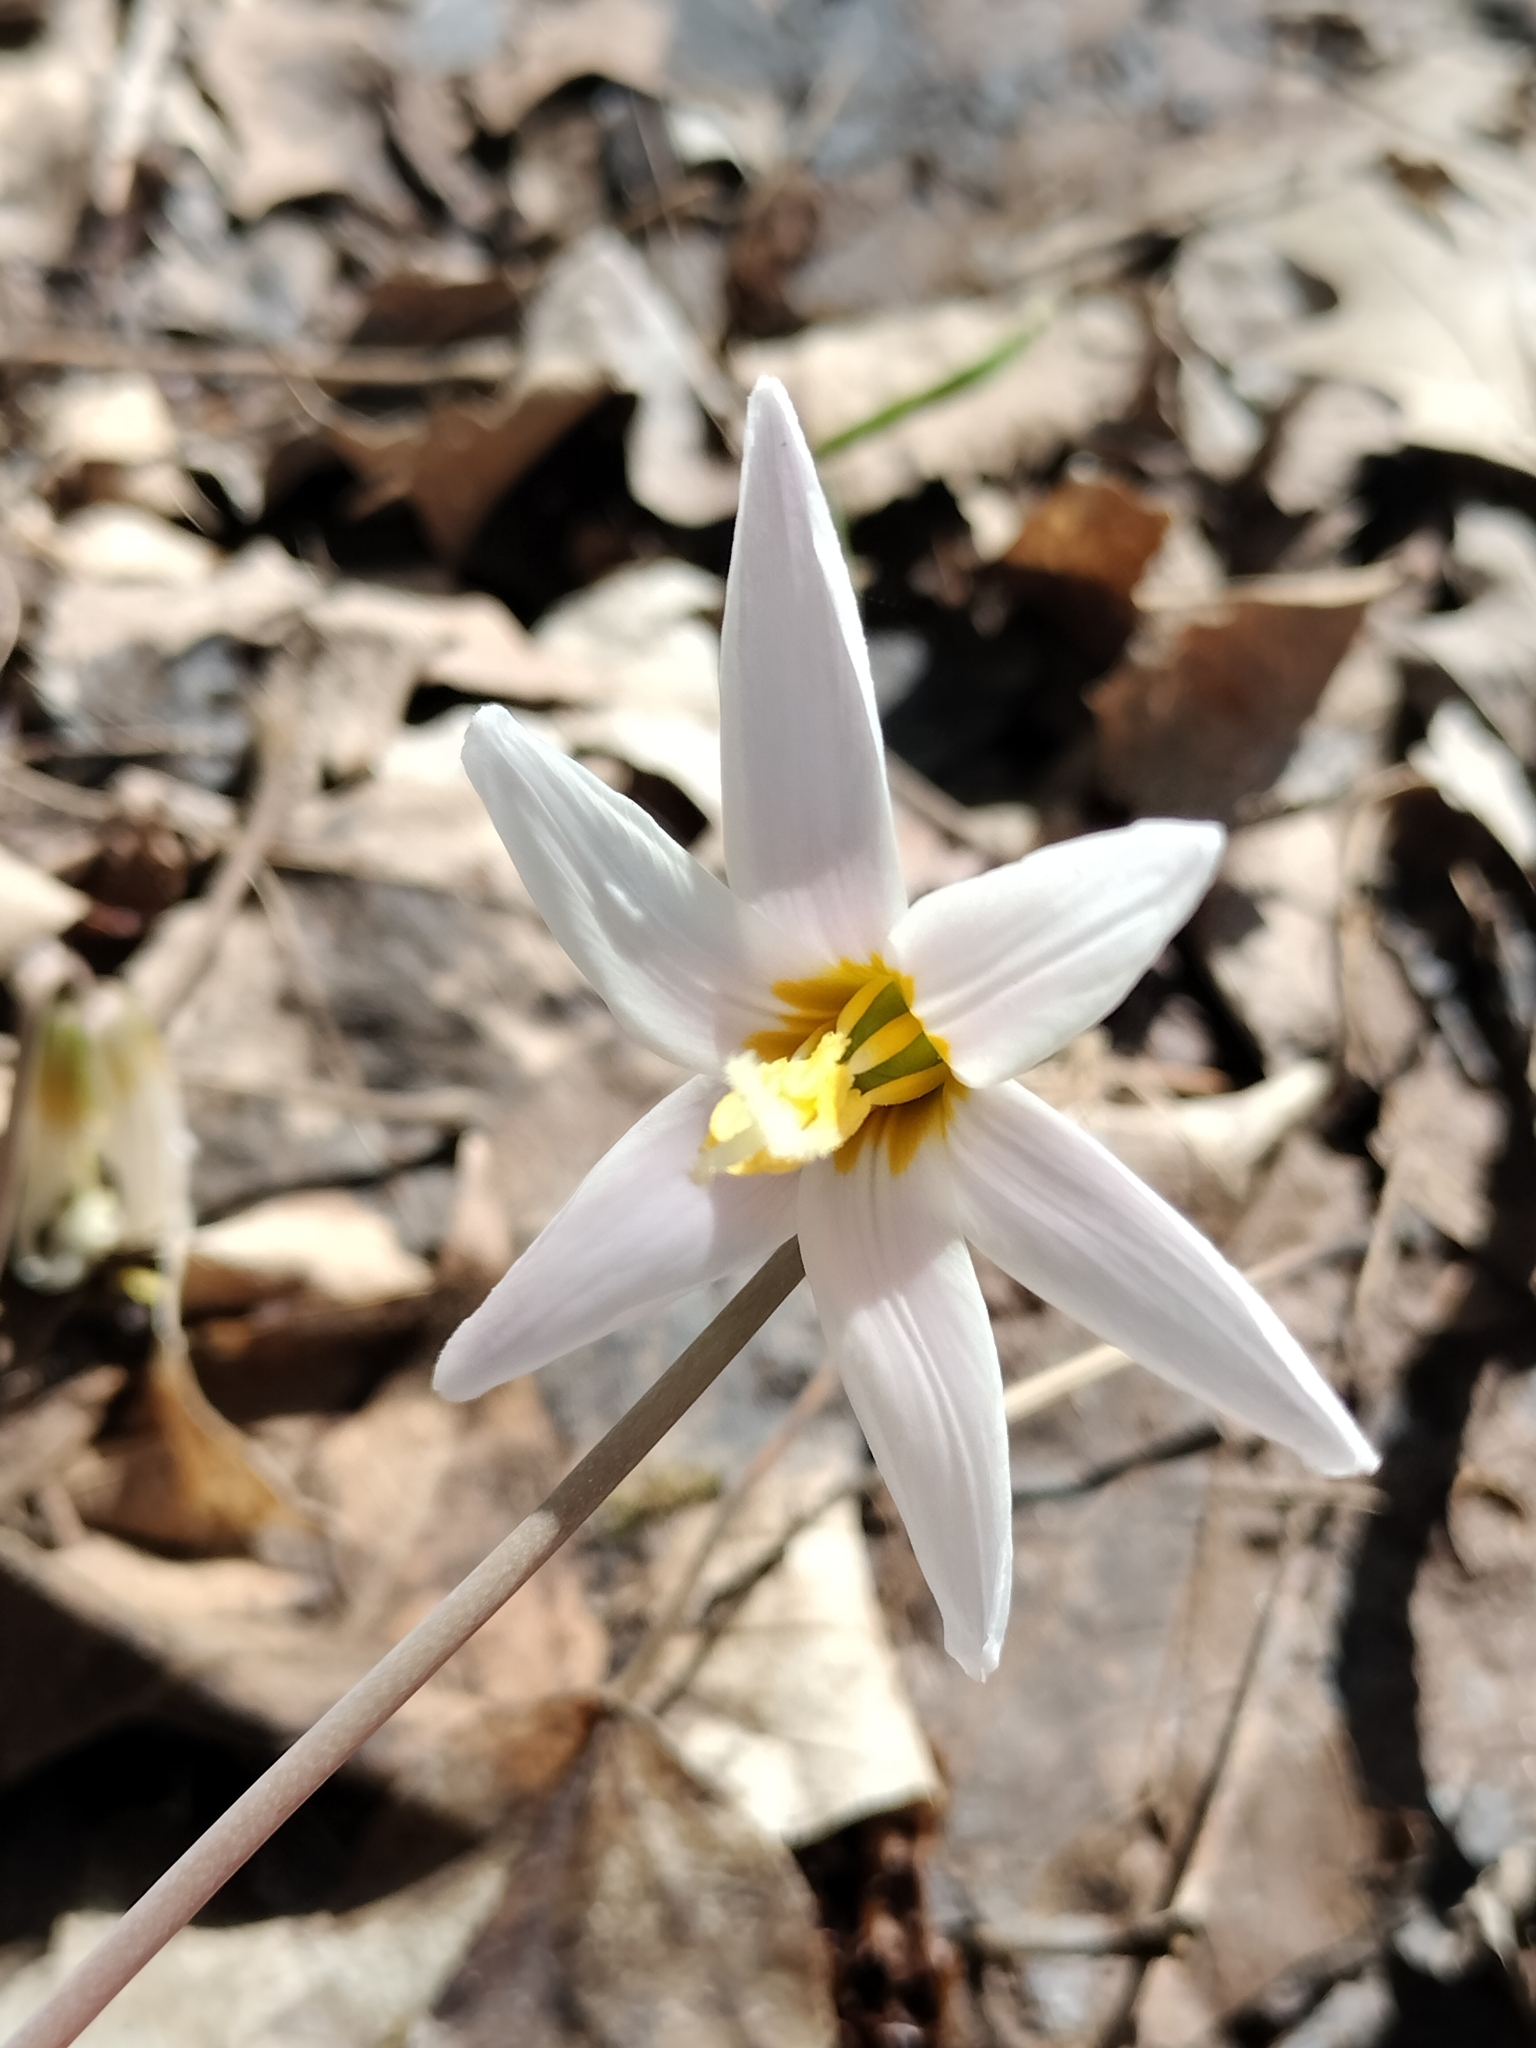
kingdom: Plantae
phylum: Tracheophyta
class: Liliopsida
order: Liliales
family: Liliaceae
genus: Erythronium
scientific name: Erythronium albidum
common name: White trout-lily
